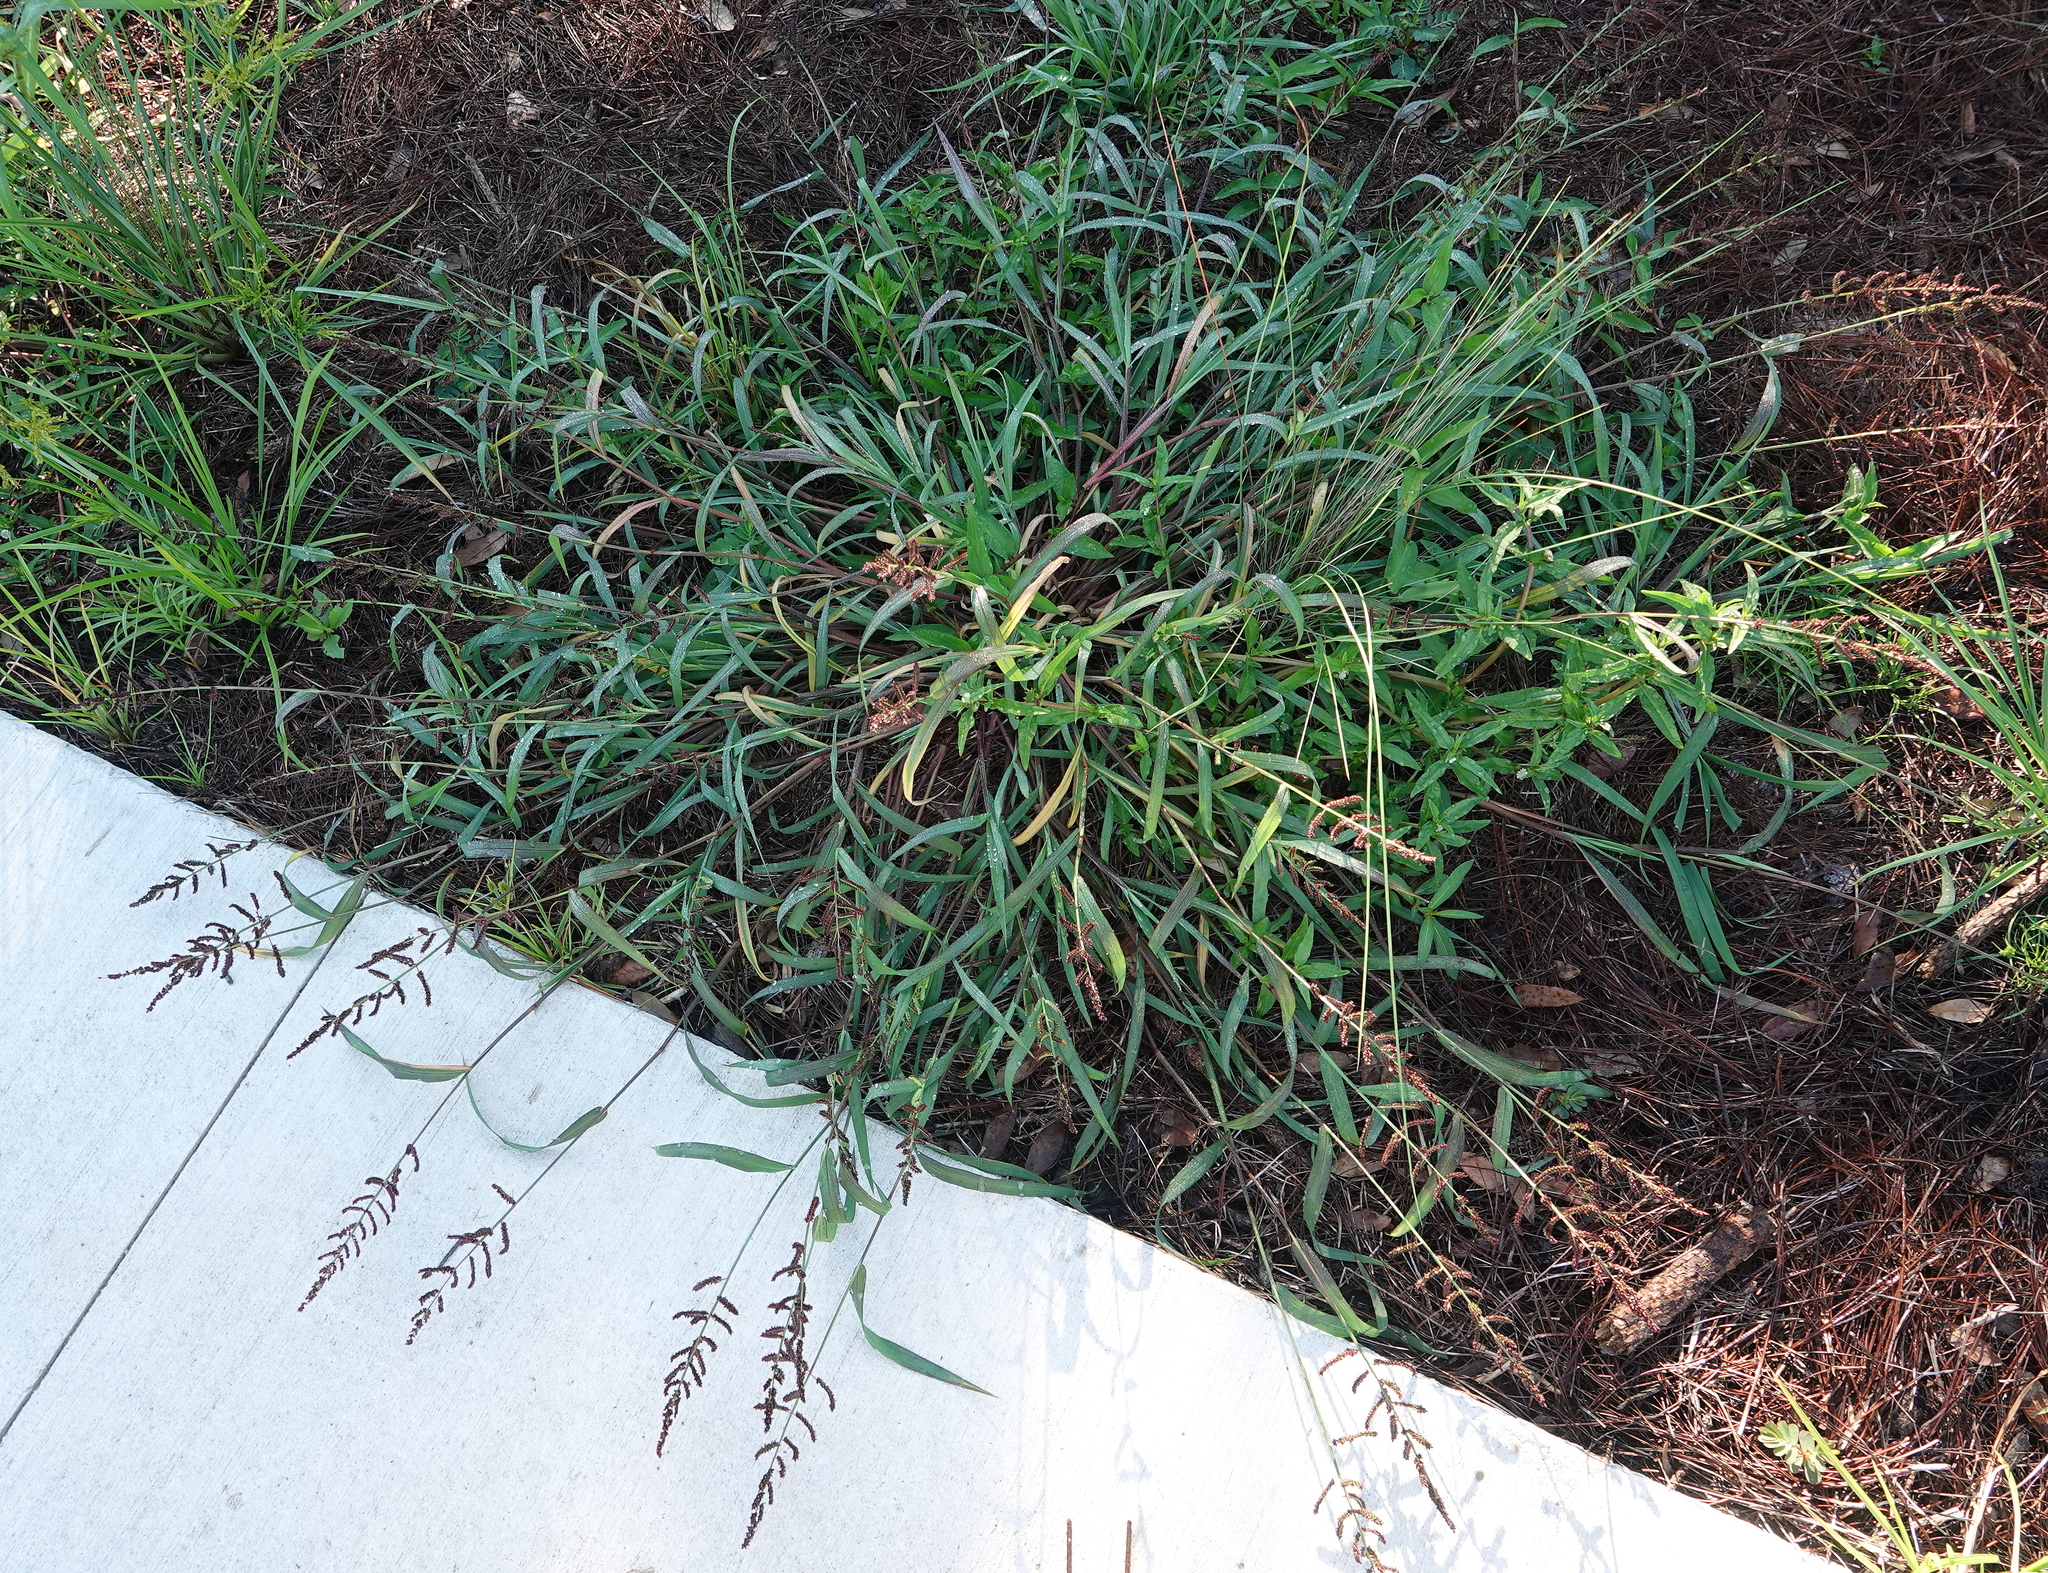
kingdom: Plantae
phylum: Tracheophyta
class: Liliopsida
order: Poales
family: Poaceae
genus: Echinochloa
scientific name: Echinochloa colonum
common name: Jungle rice
